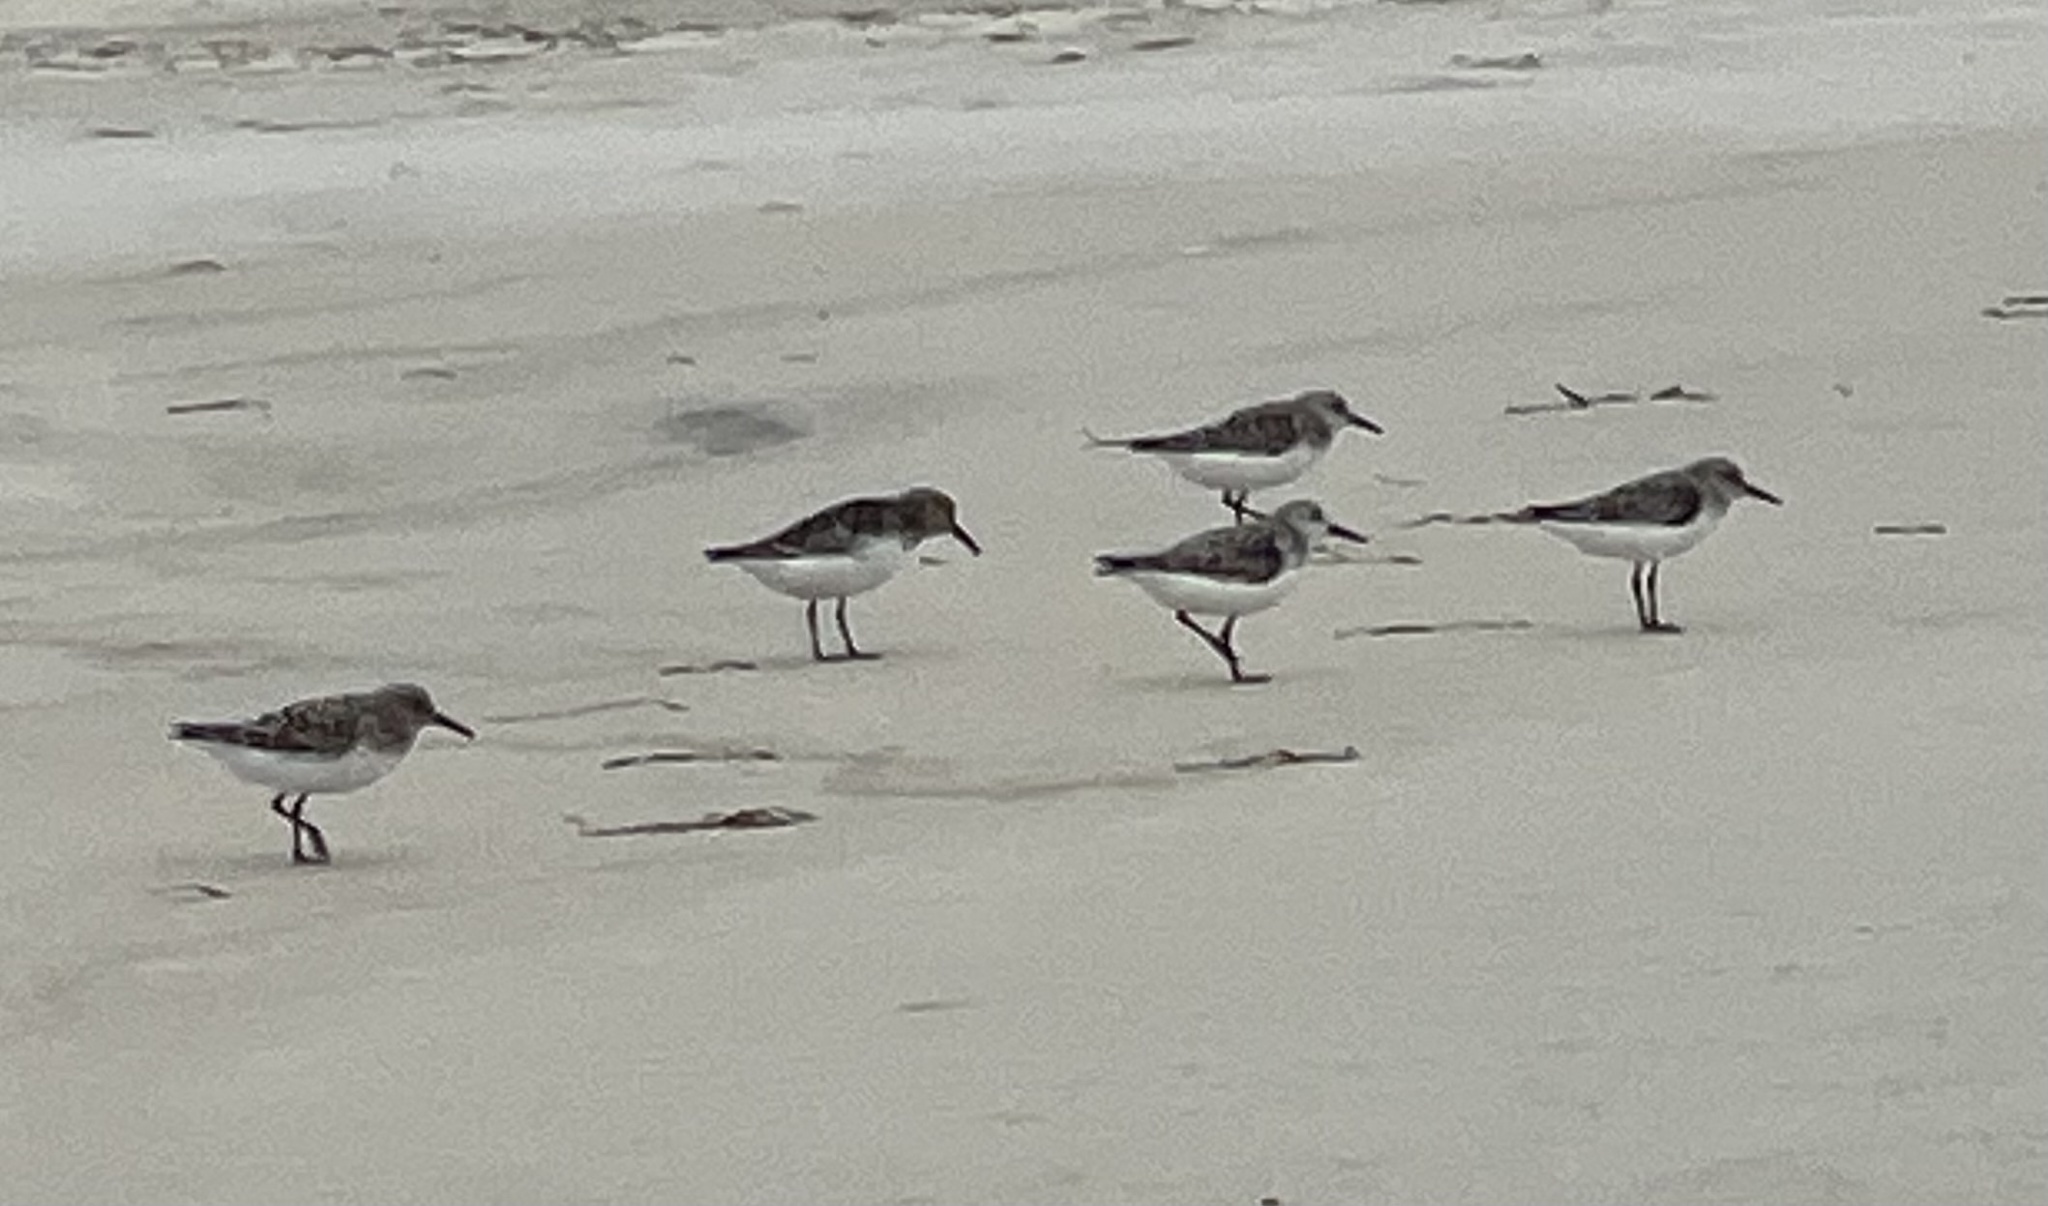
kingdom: Animalia
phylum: Chordata
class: Aves
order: Charadriiformes
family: Scolopacidae
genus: Calidris
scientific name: Calidris alba
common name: Sanderling
